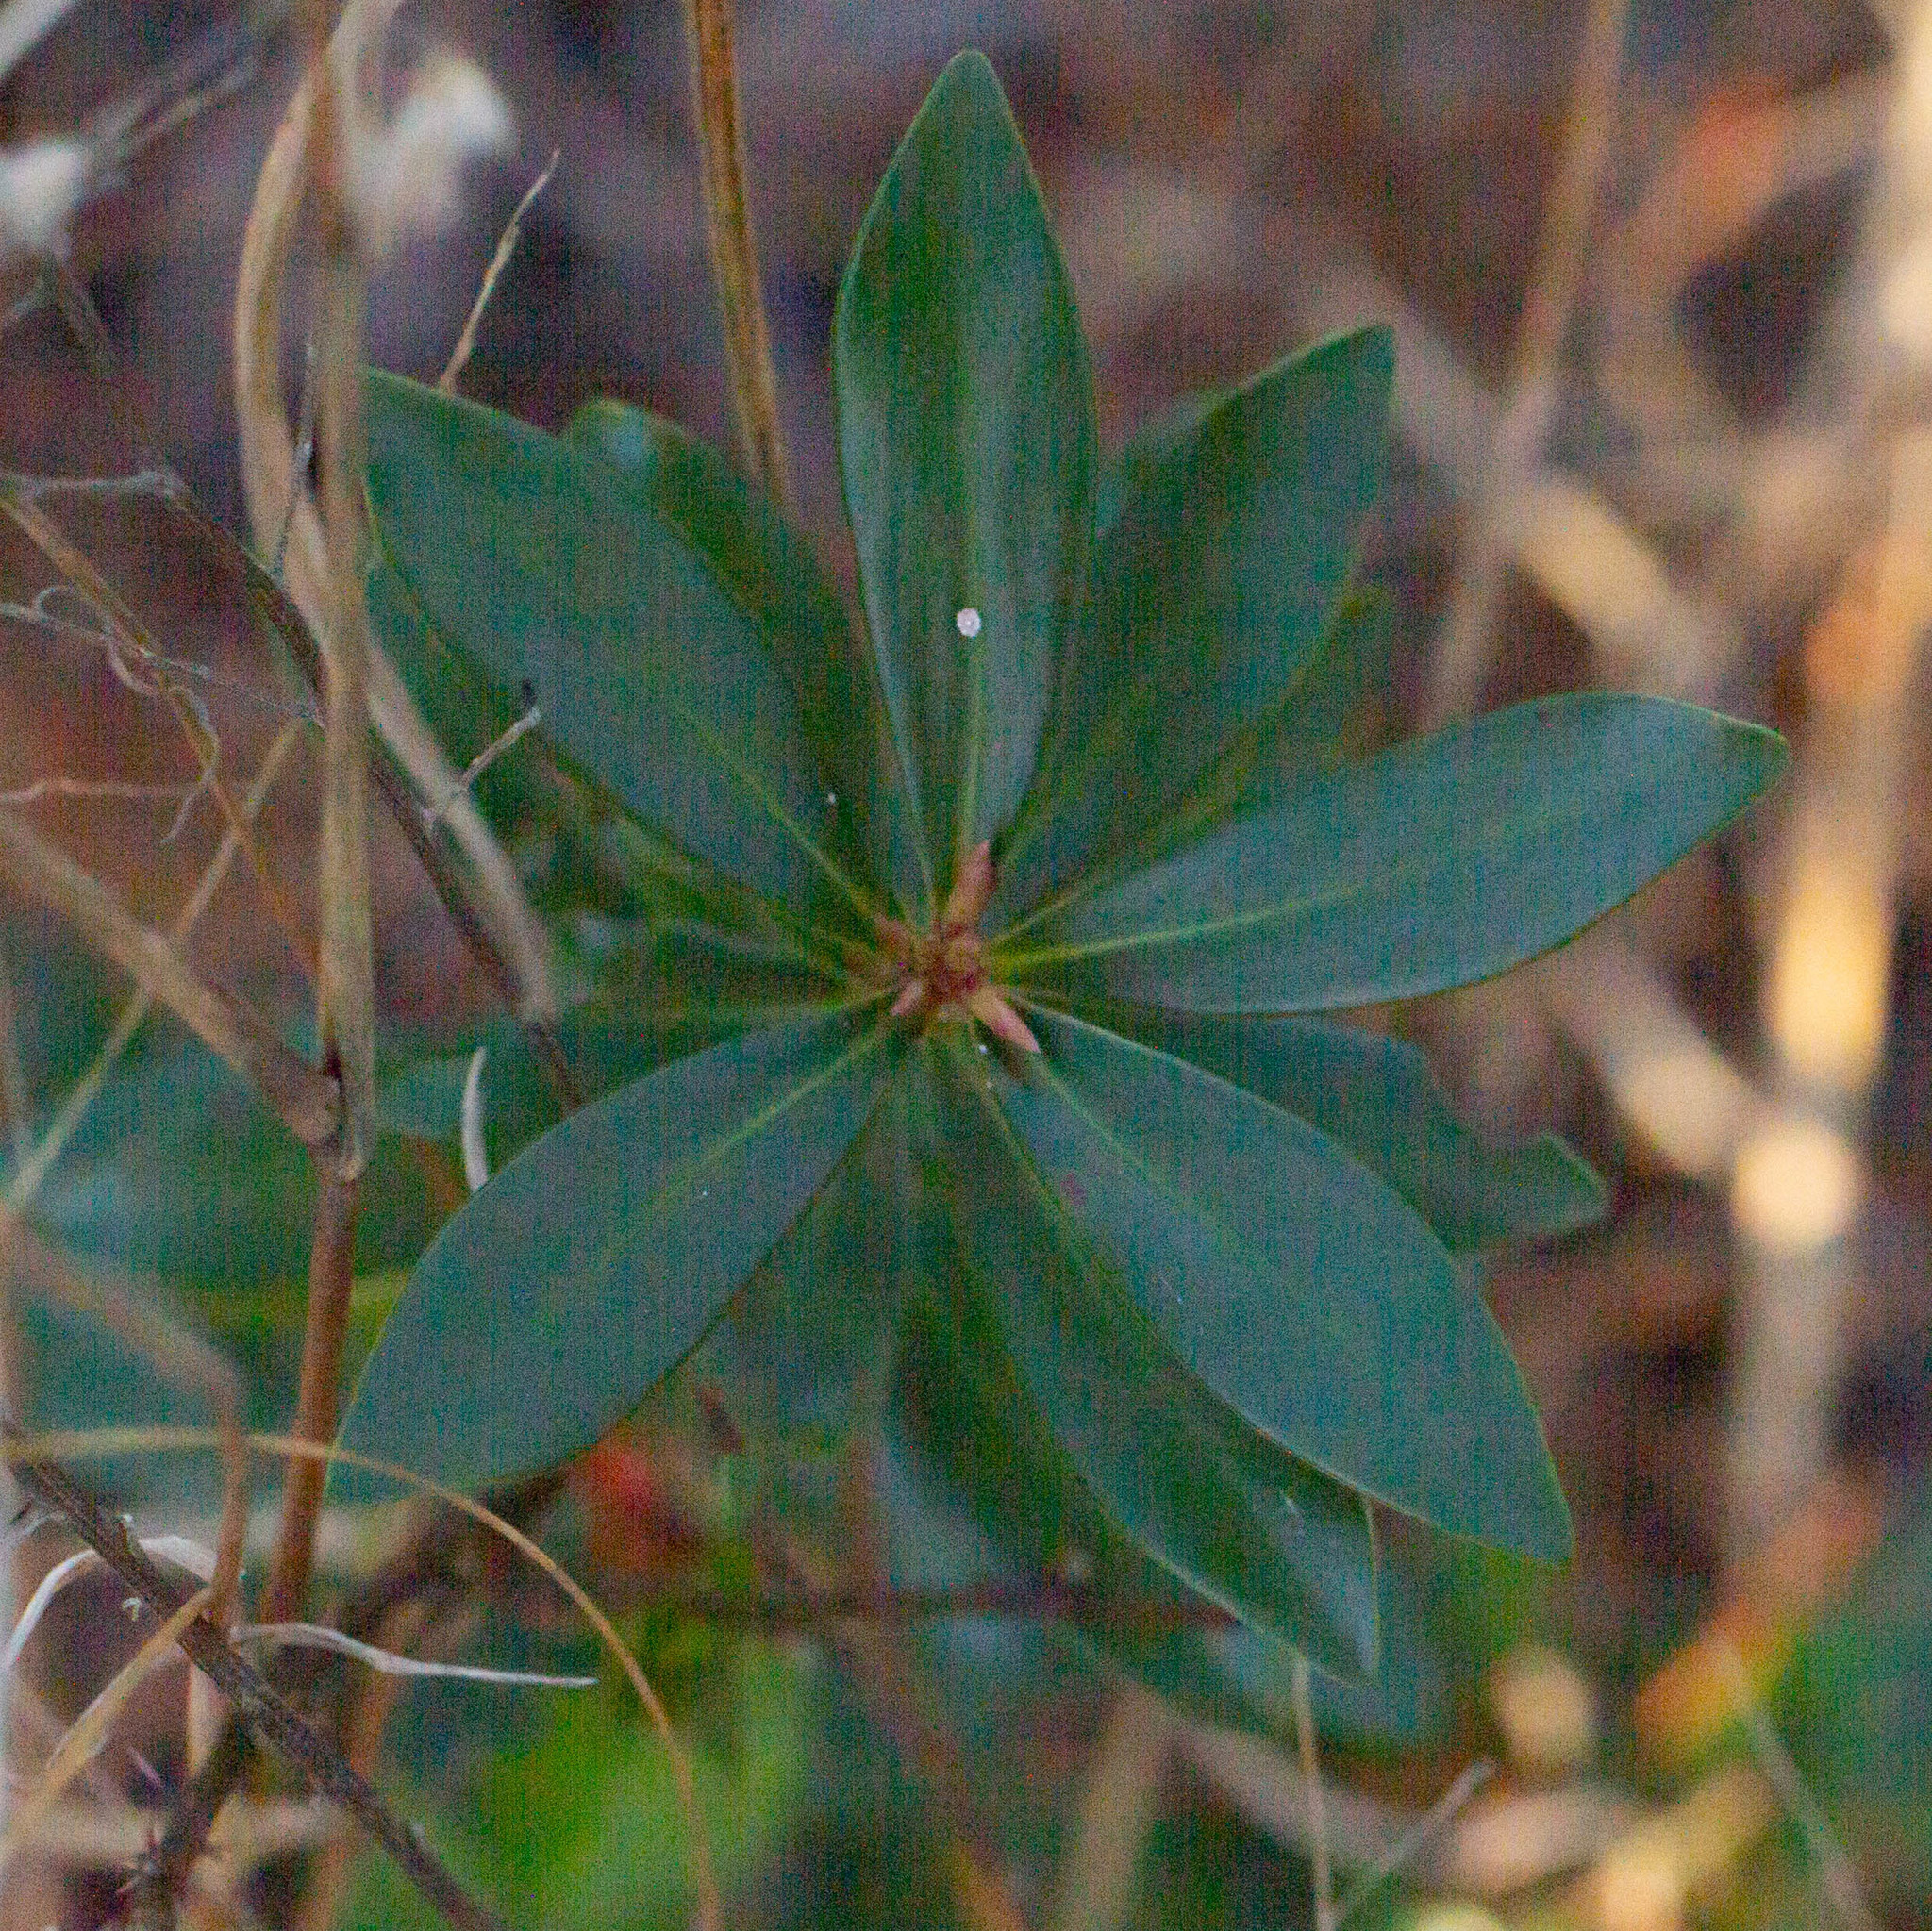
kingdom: Plantae
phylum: Tracheophyta
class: Magnoliopsida
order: Ericales
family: Cyrillaceae
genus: Cliftonia
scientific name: Cliftonia monophylla
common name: Titi
